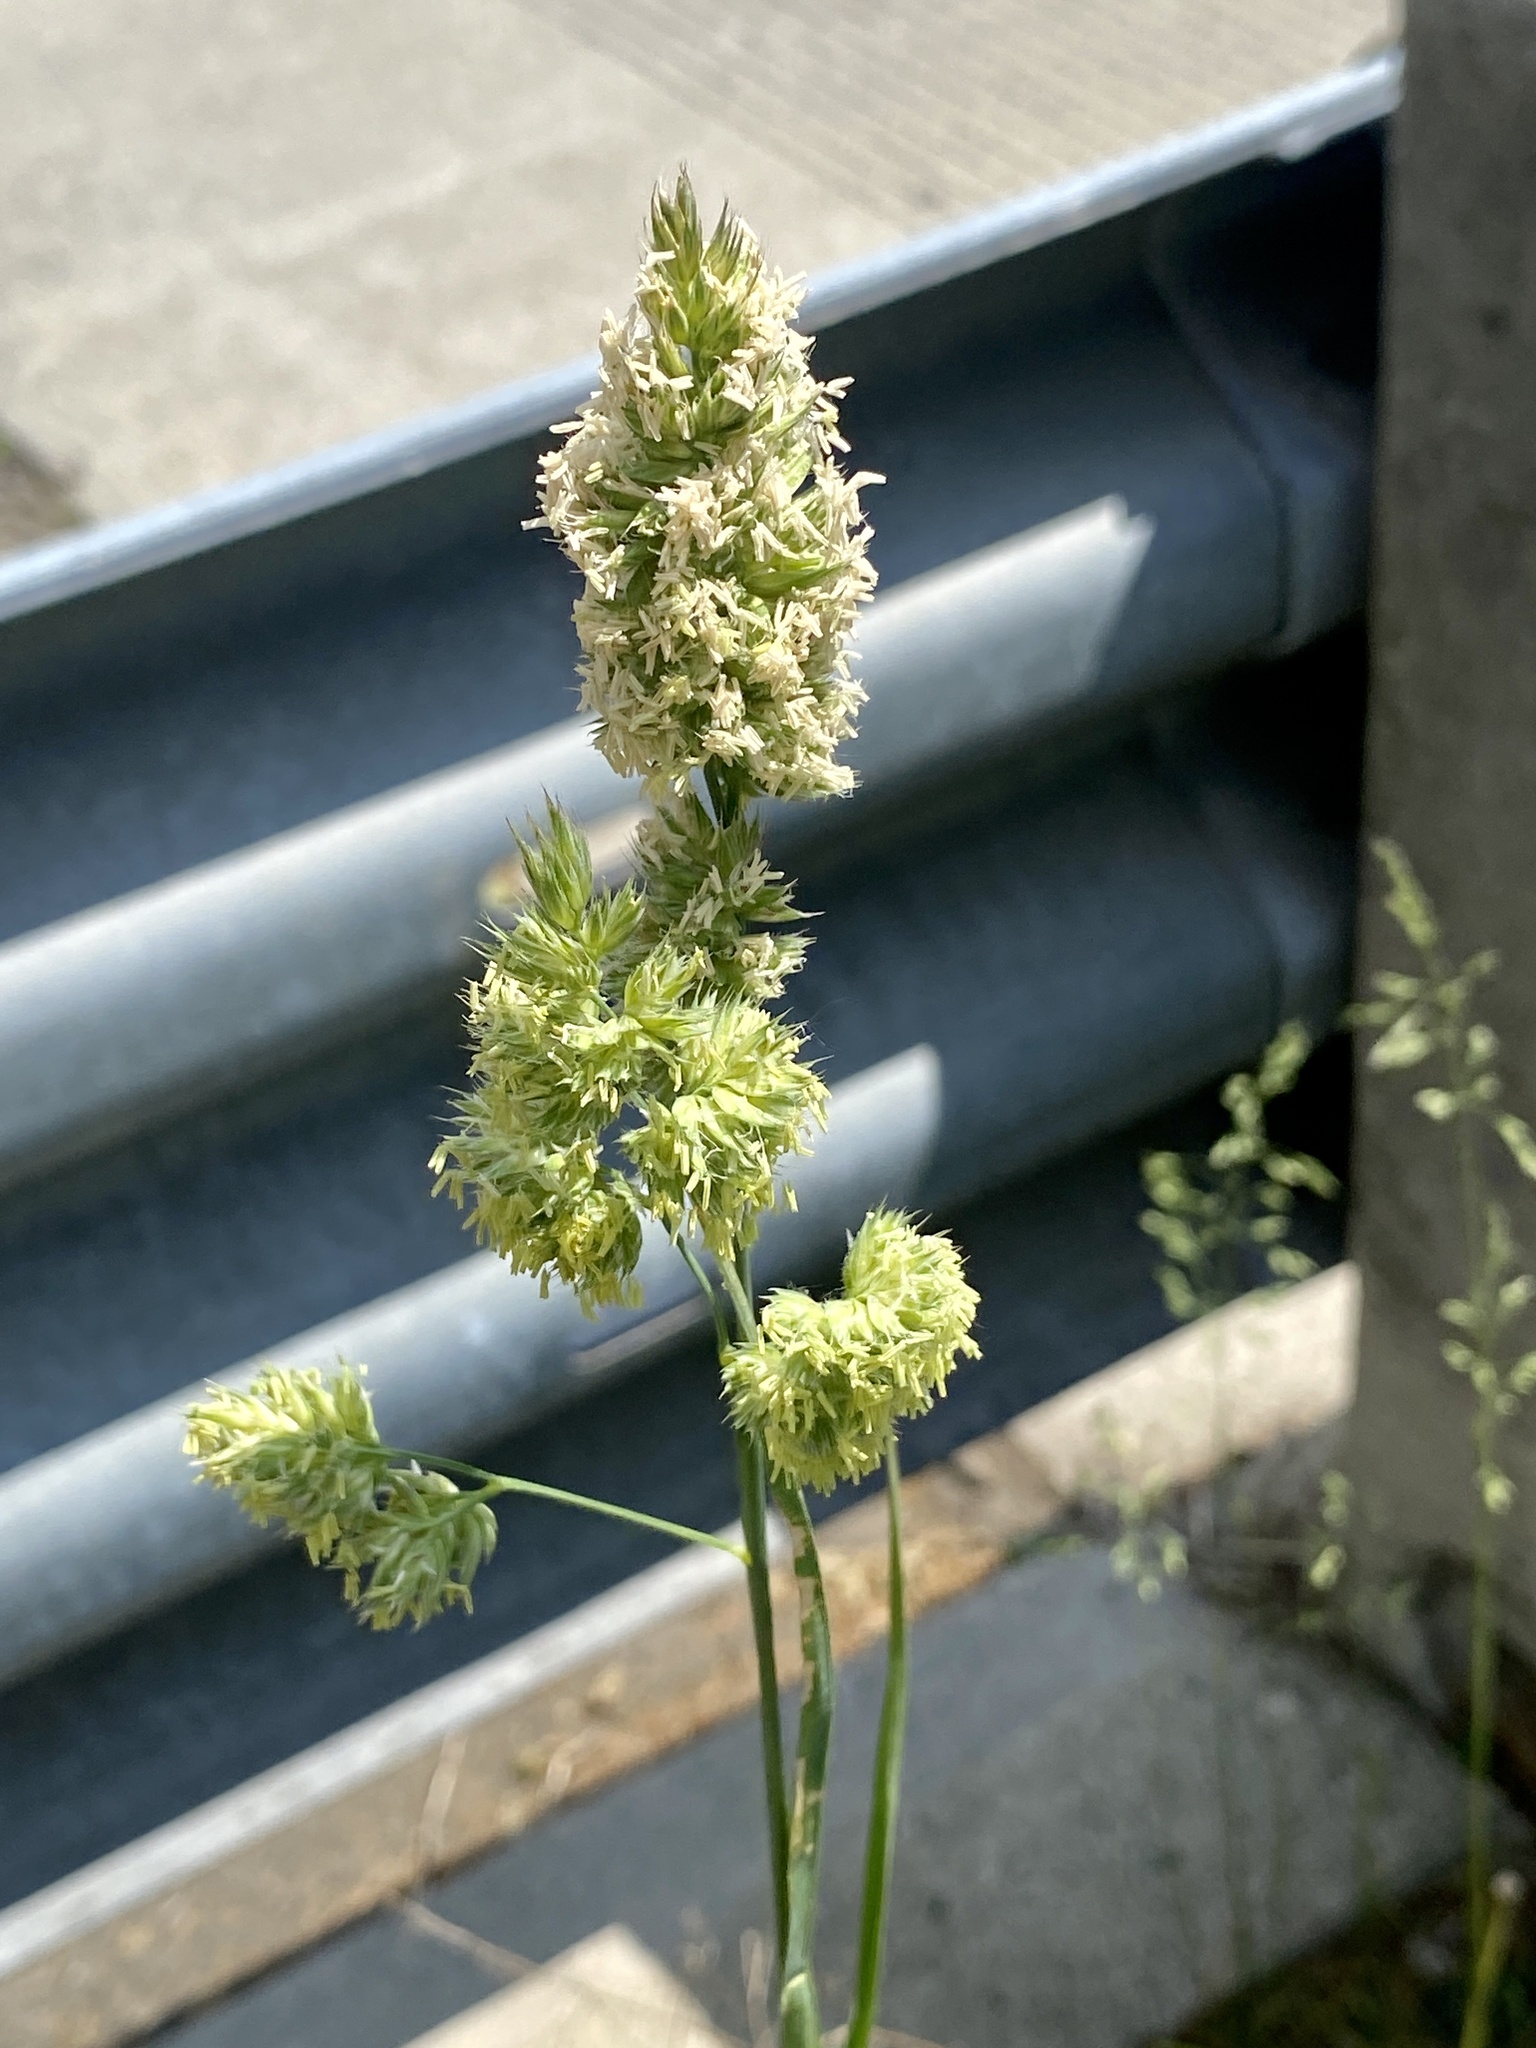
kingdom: Plantae
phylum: Tracheophyta
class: Liliopsida
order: Poales
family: Poaceae
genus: Dactylis
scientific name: Dactylis glomerata
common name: Orchardgrass
